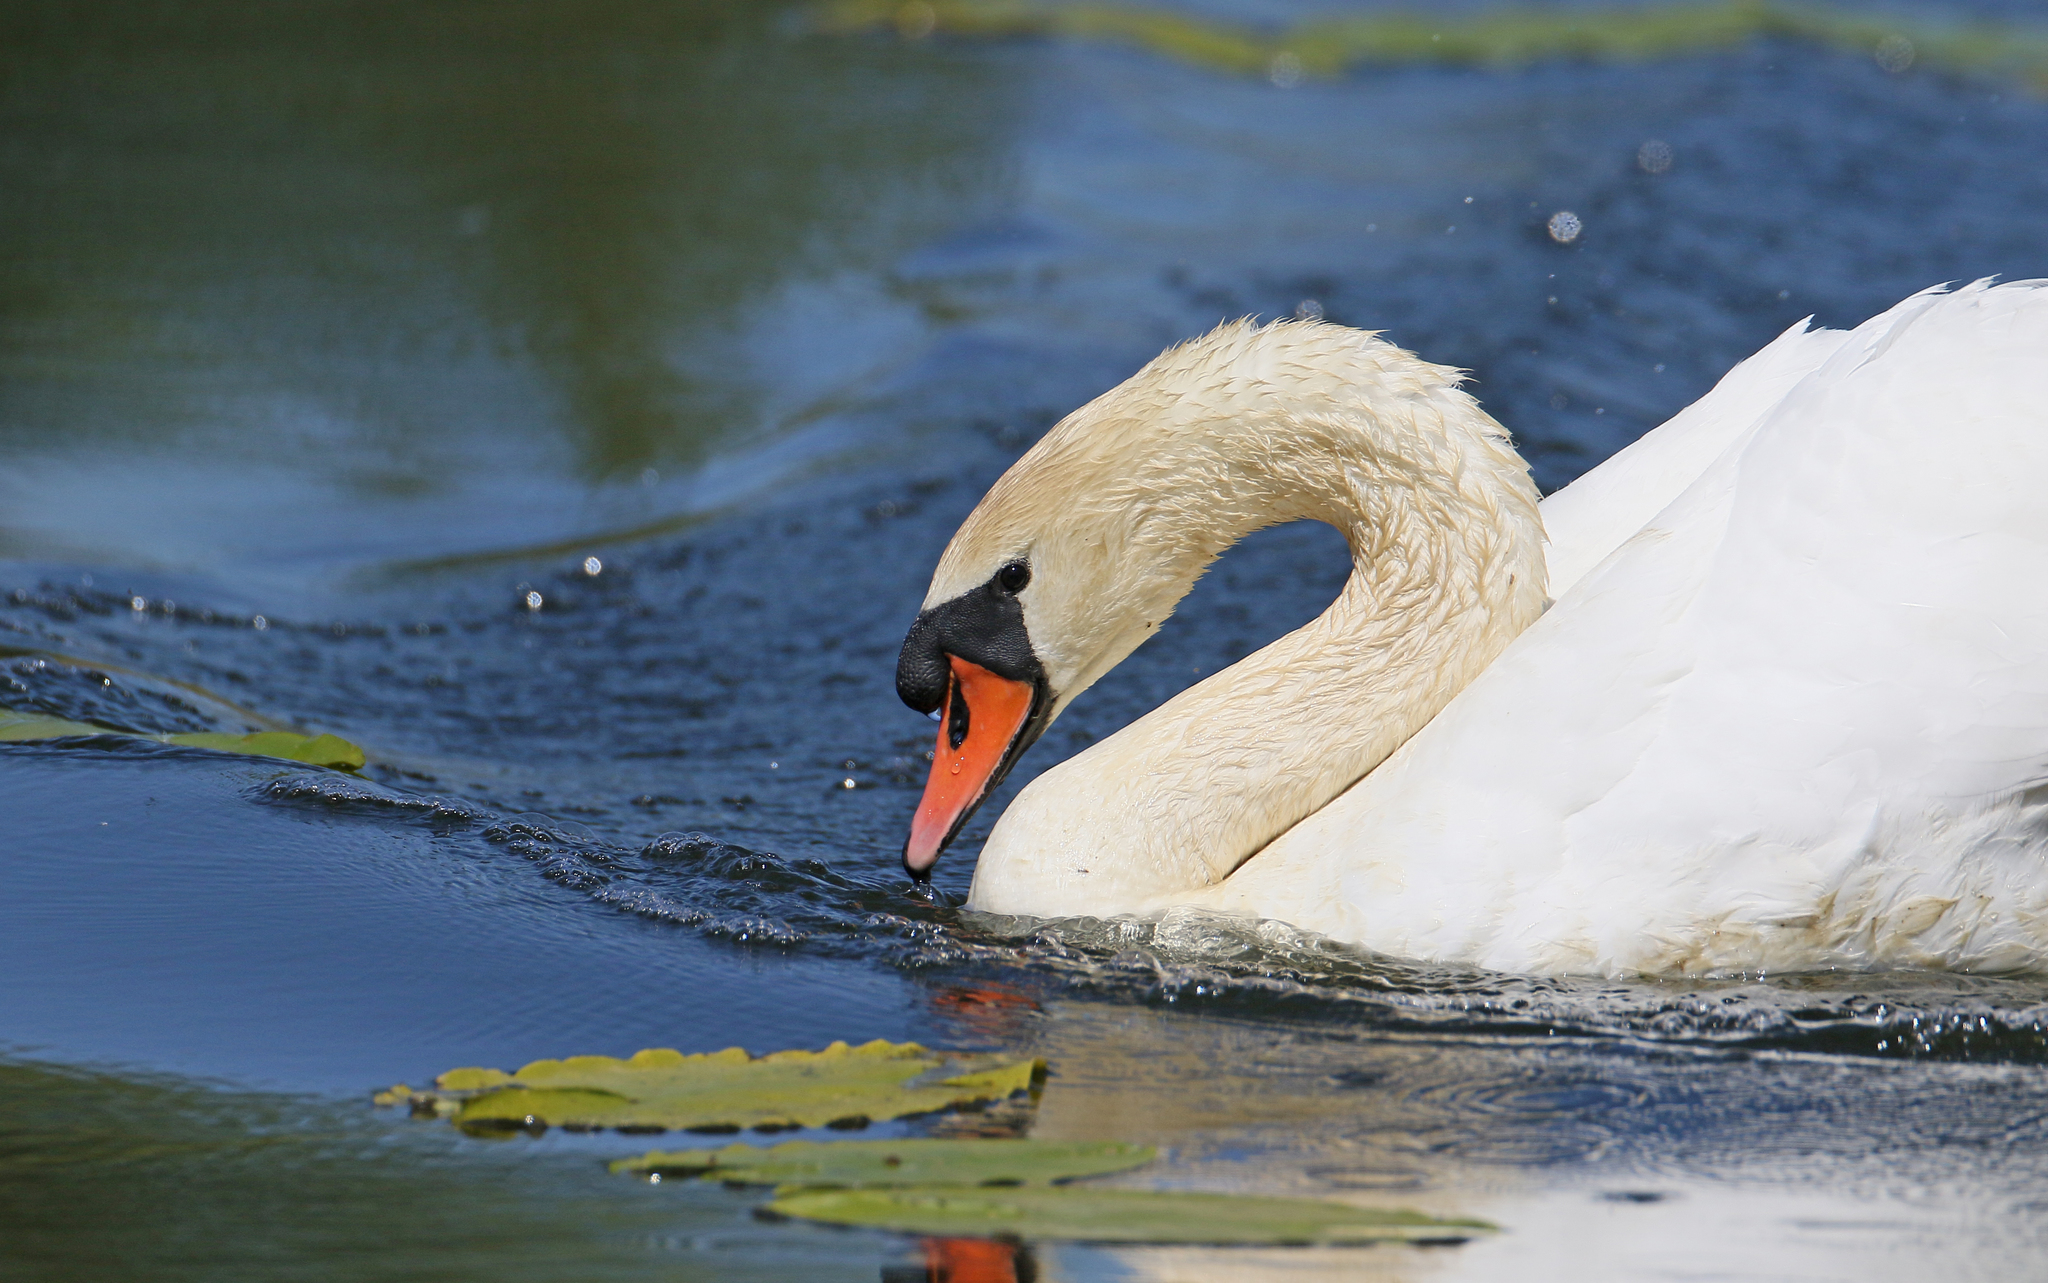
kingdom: Animalia
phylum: Chordata
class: Aves
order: Anseriformes
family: Anatidae
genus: Cygnus
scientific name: Cygnus olor
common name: Mute swan
